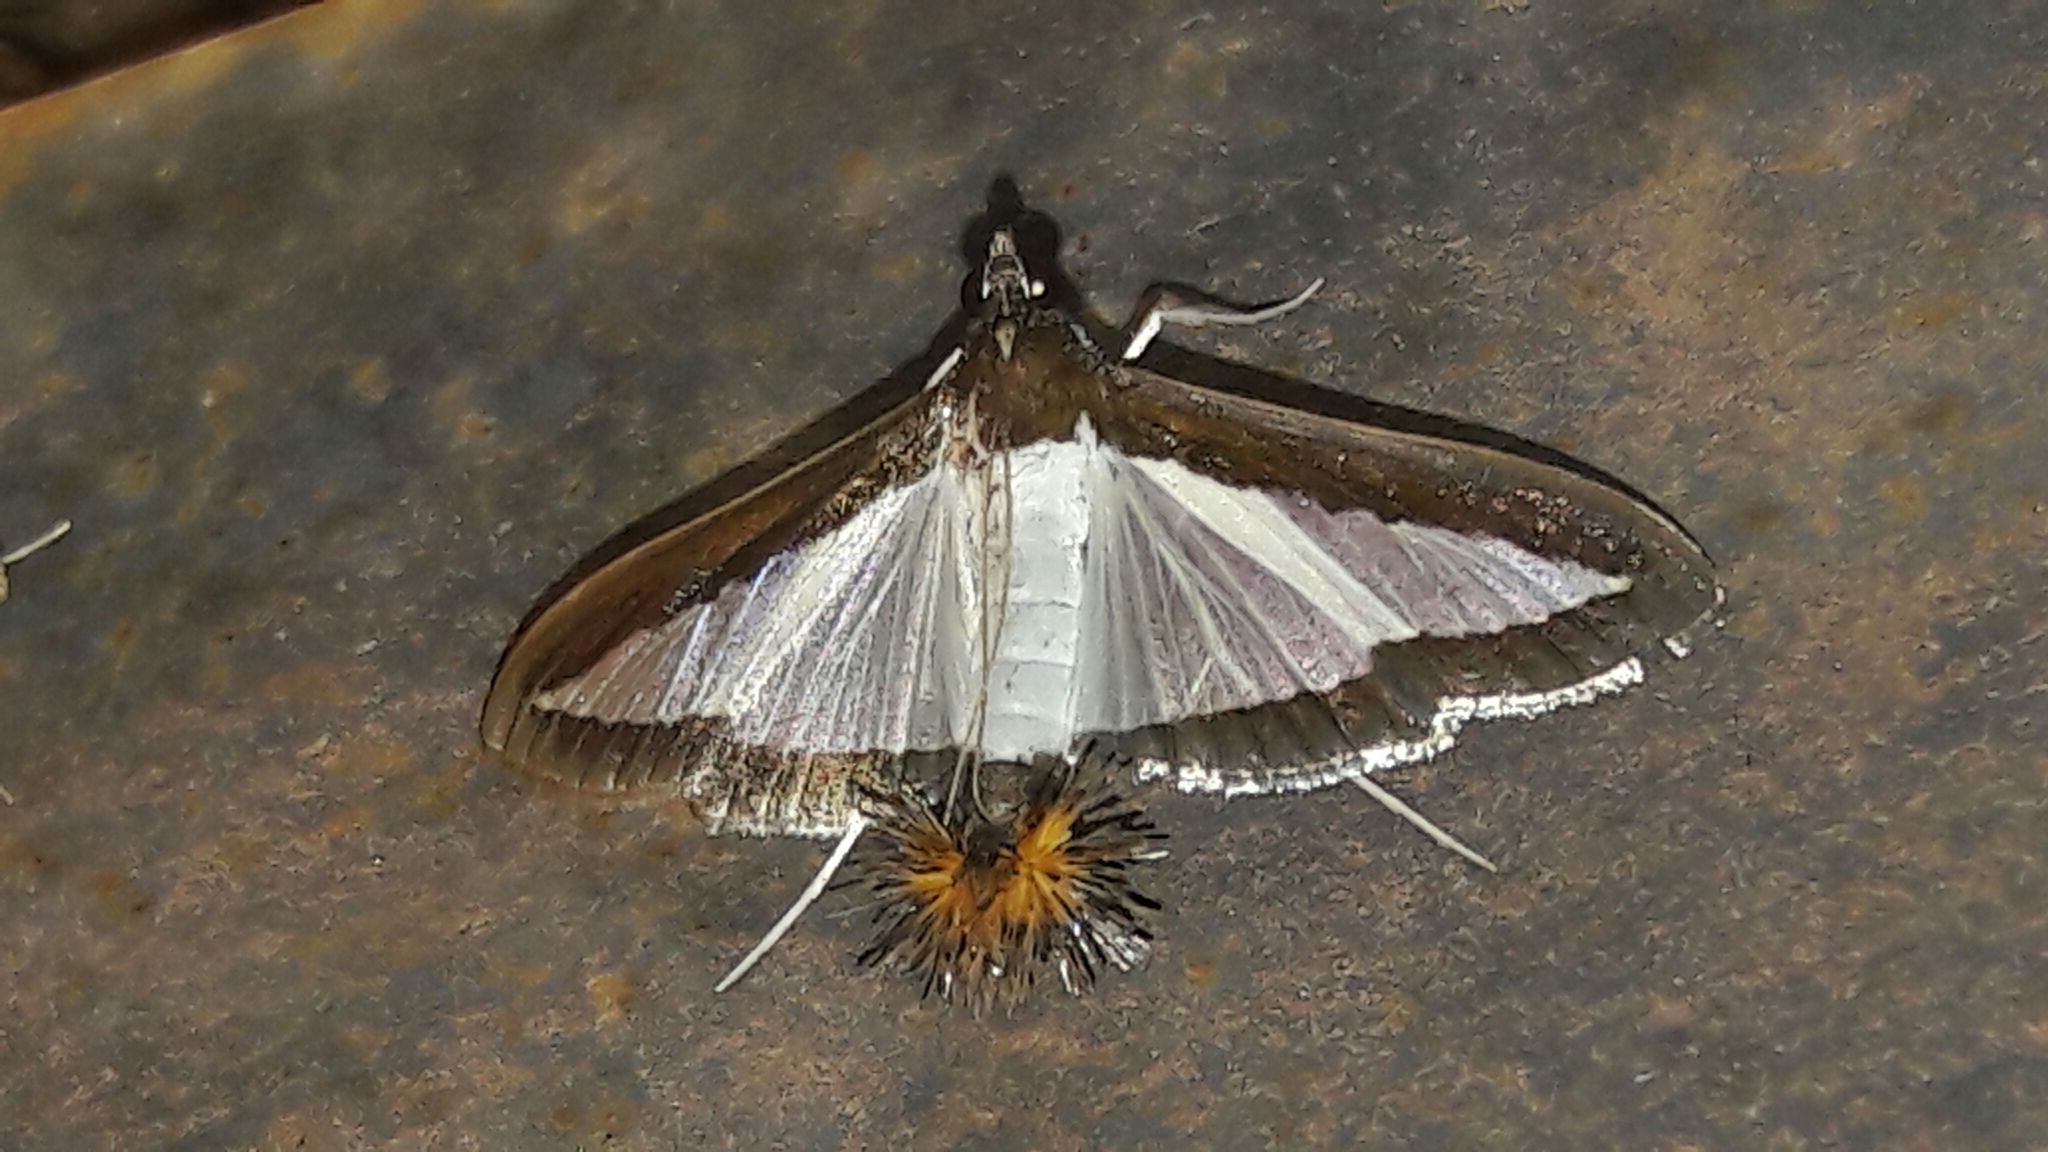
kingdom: Animalia
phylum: Arthropoda
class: Insecta
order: Lepidoptera
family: Crambidae
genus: Diaphania
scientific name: Diaphania hyalinata
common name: Melonworm
